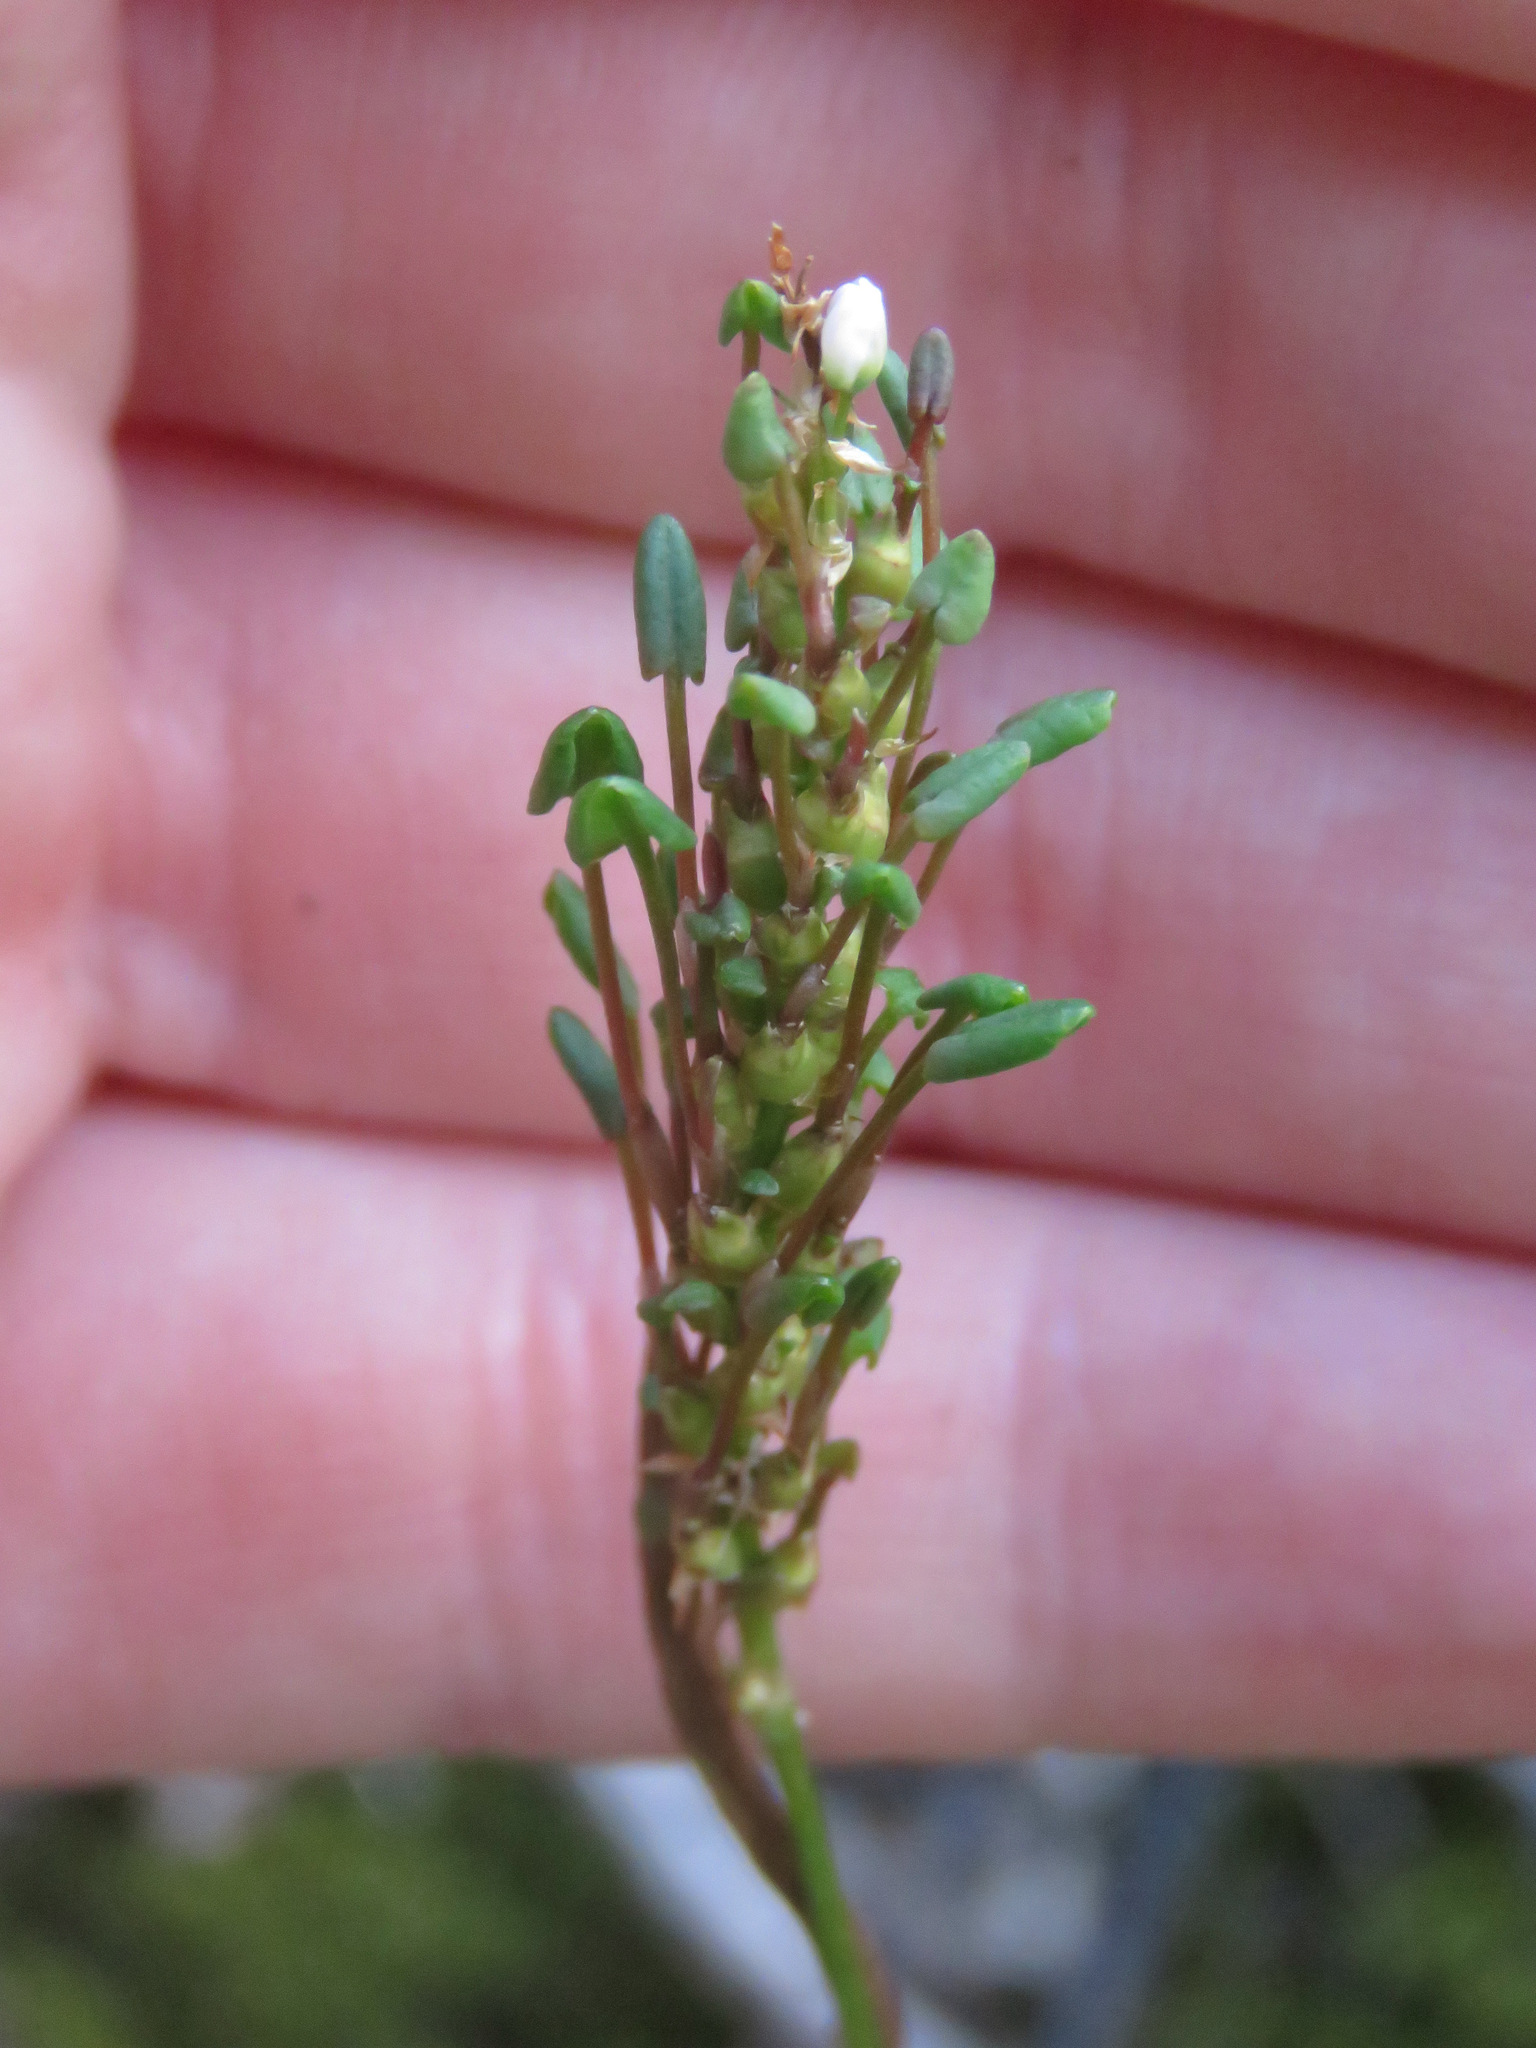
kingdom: Plantae
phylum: Tracheophyta
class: Magnoliopsida
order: Caryophyllales
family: Polygonaceae
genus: Bistorta
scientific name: Bistorta vivipara
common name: Alpine bistort
